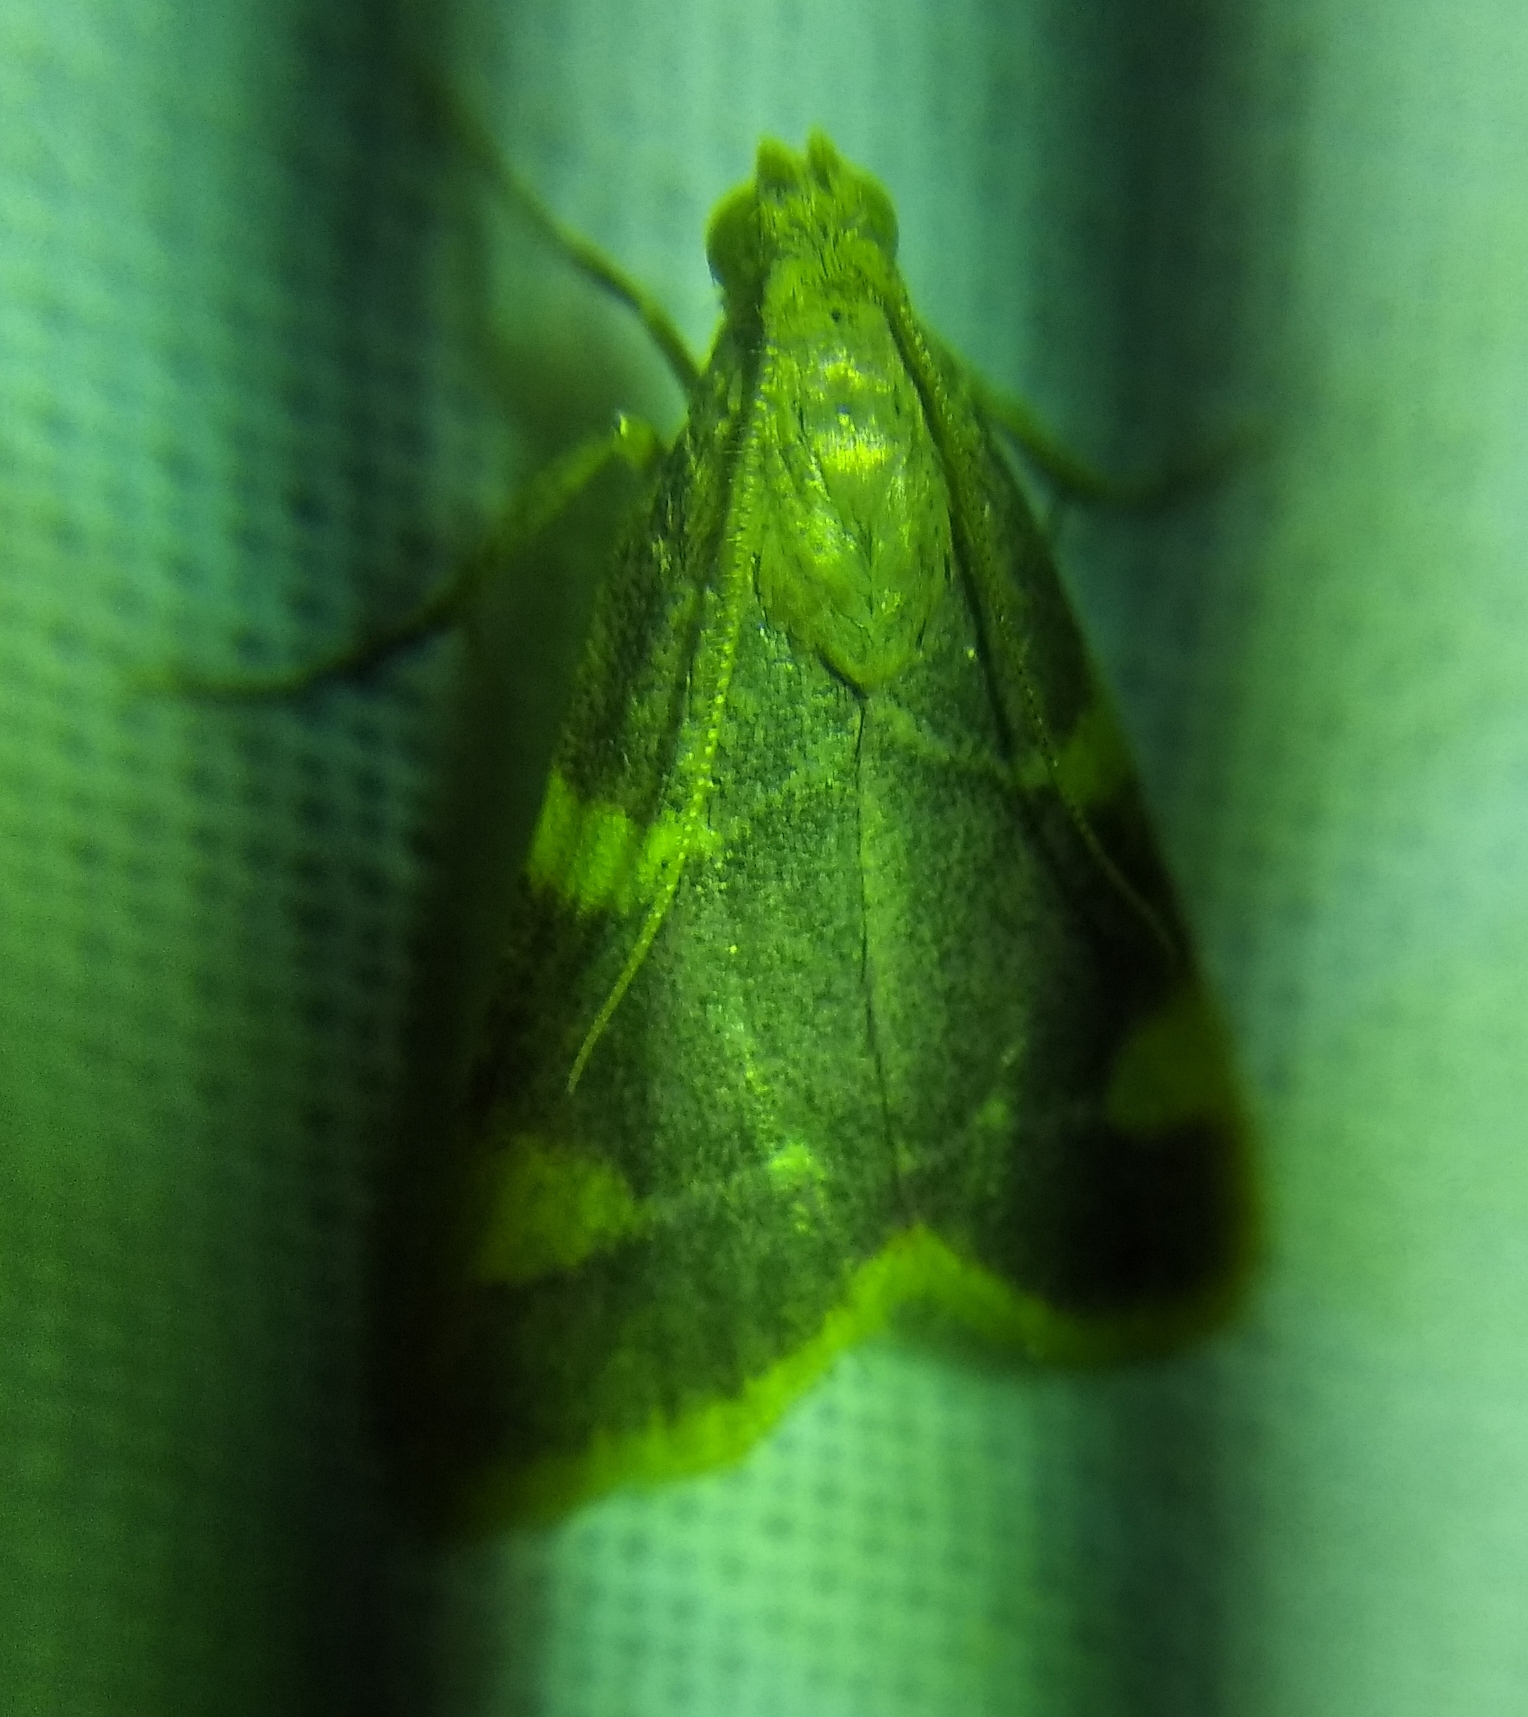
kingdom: Animalia
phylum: Arthropoda
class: Insecta
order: Lepidoptera
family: Pyralidae
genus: Hypsopygia
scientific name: Hypsopygia costalis
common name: Gold triangle
